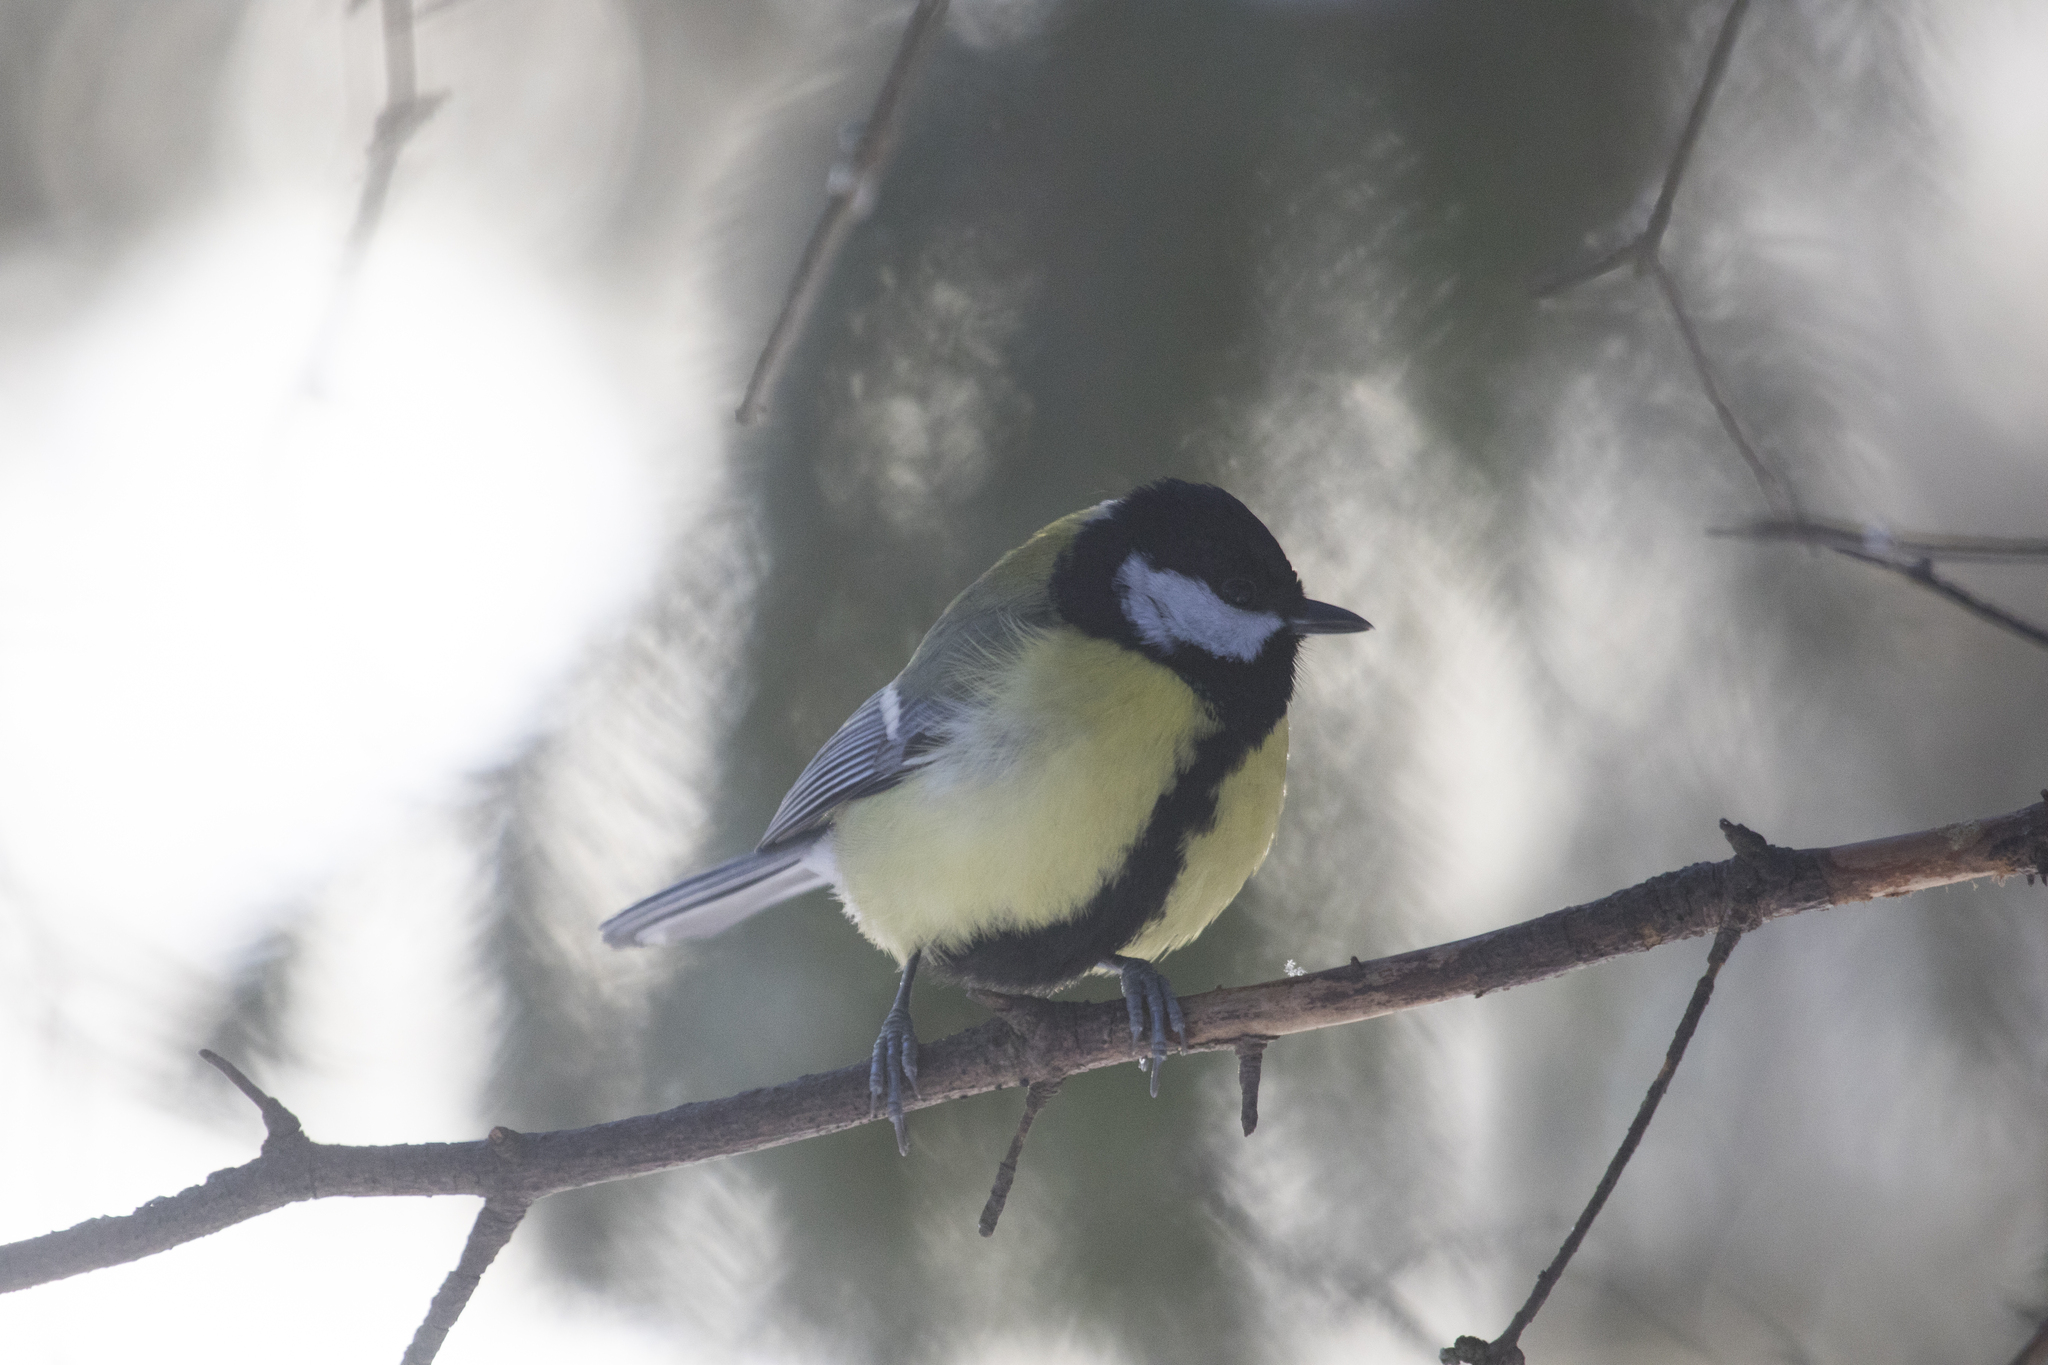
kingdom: Animalia
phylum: Chordata
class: Aves
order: Passeriformes
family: Paridae
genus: Parus
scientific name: Parus major
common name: Great tit
